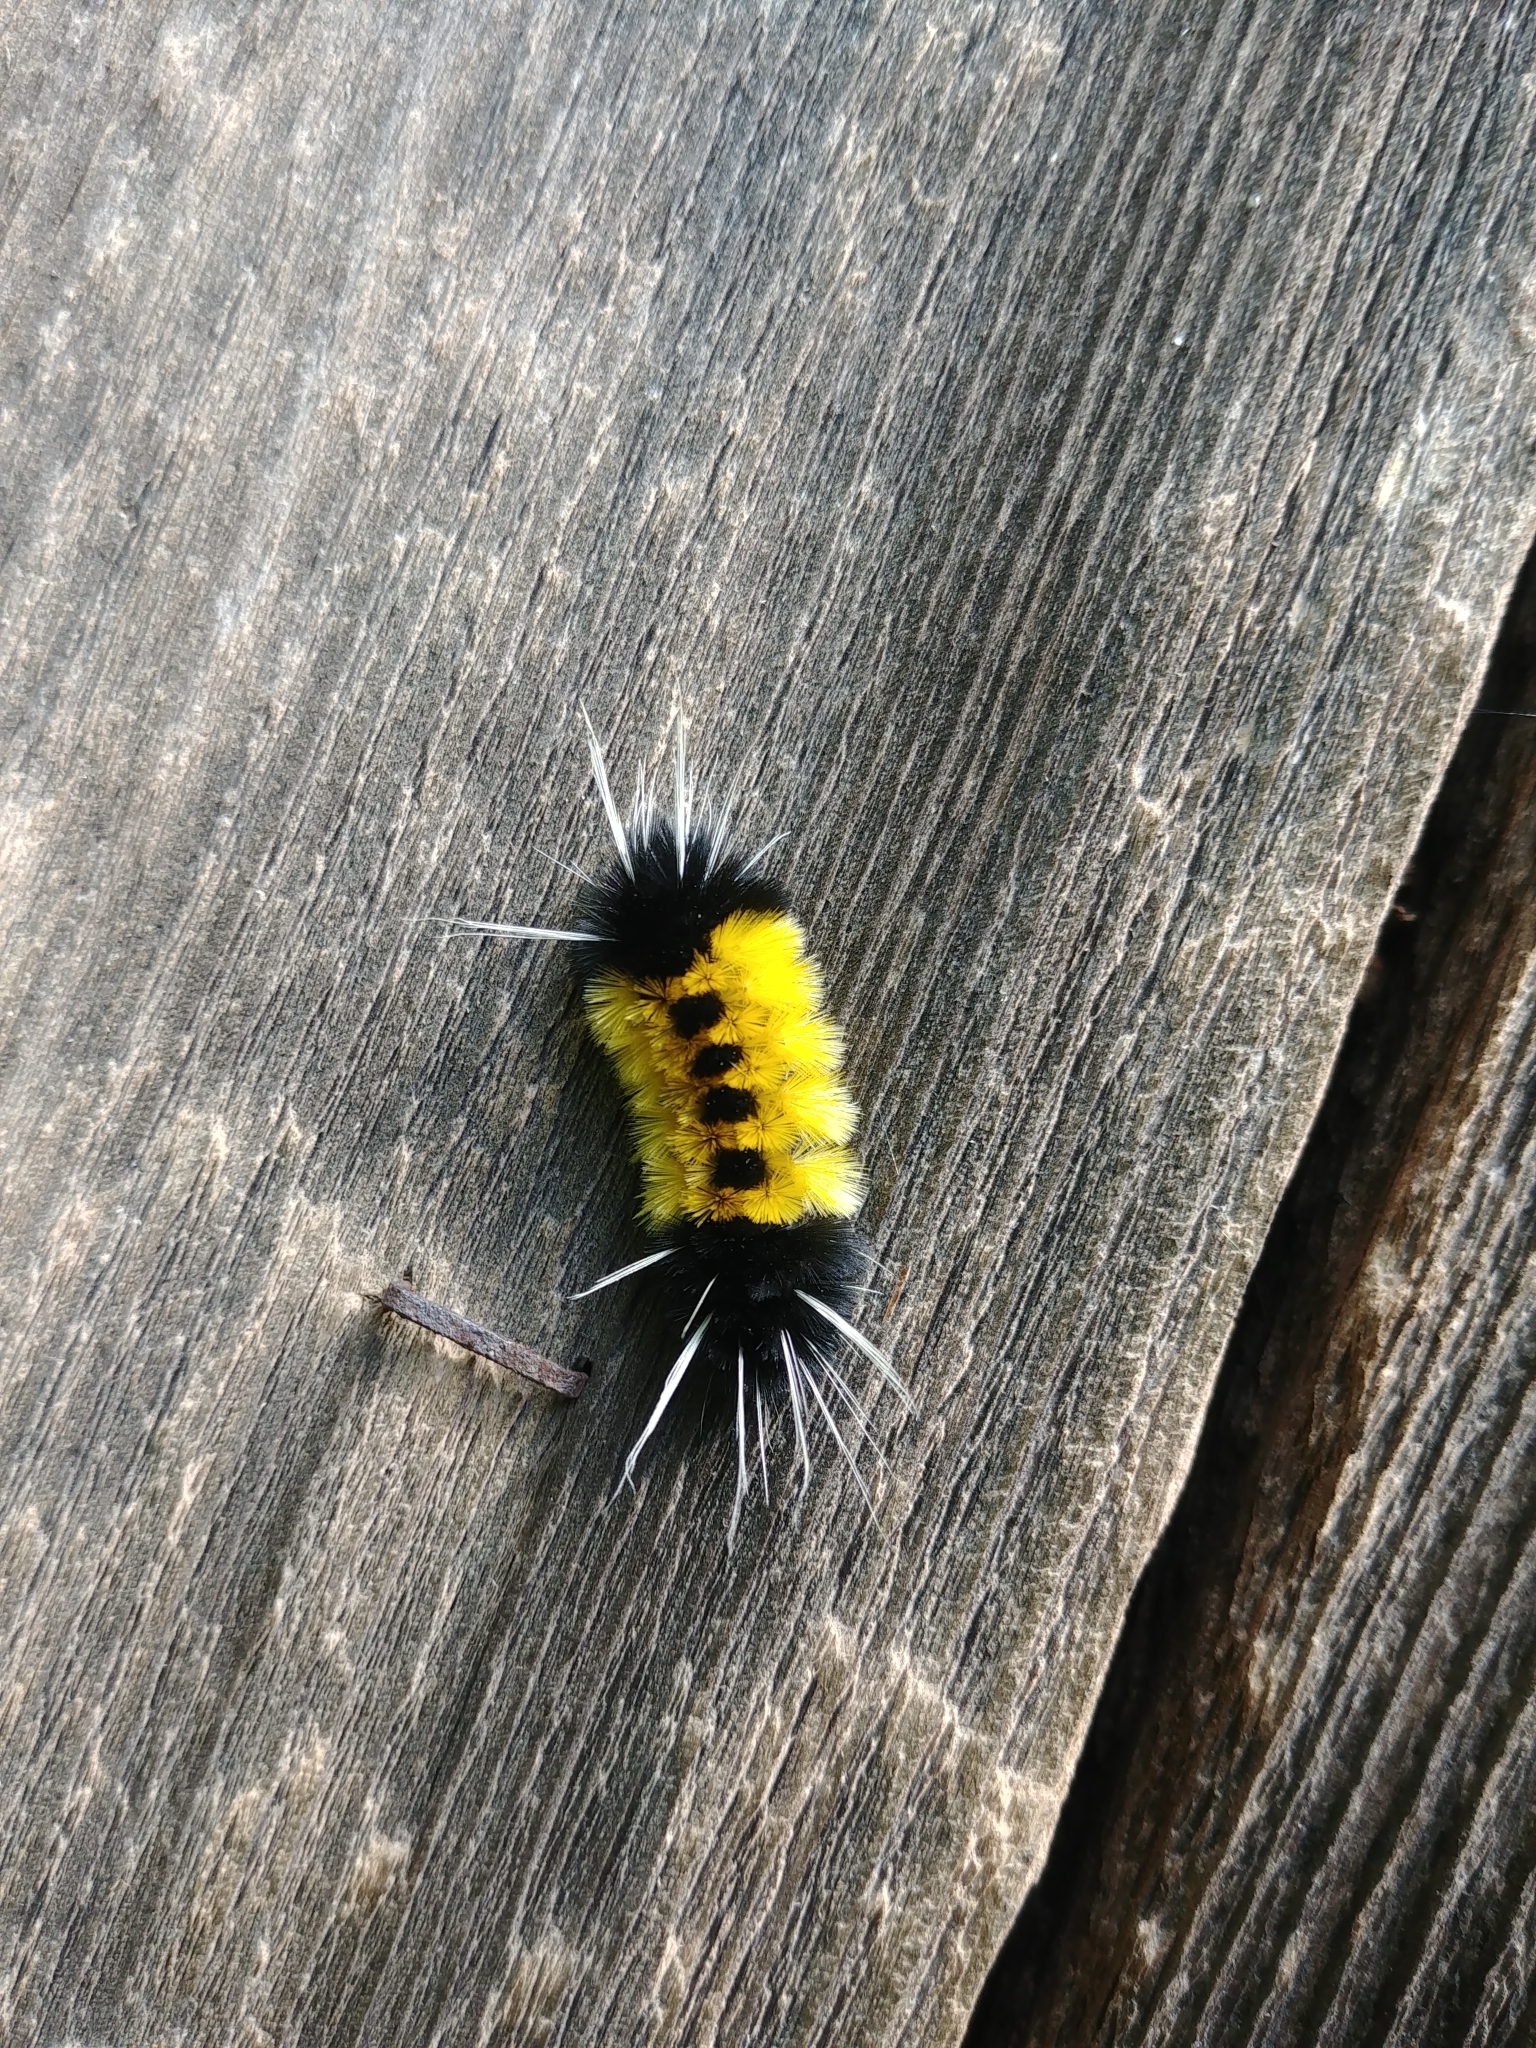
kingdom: Animalia
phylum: Arthropoda
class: Insecta
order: Lepidoptera
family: Erebidae
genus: Lophocampa
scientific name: Lophocampa maculata
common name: Spotted tussock moth
